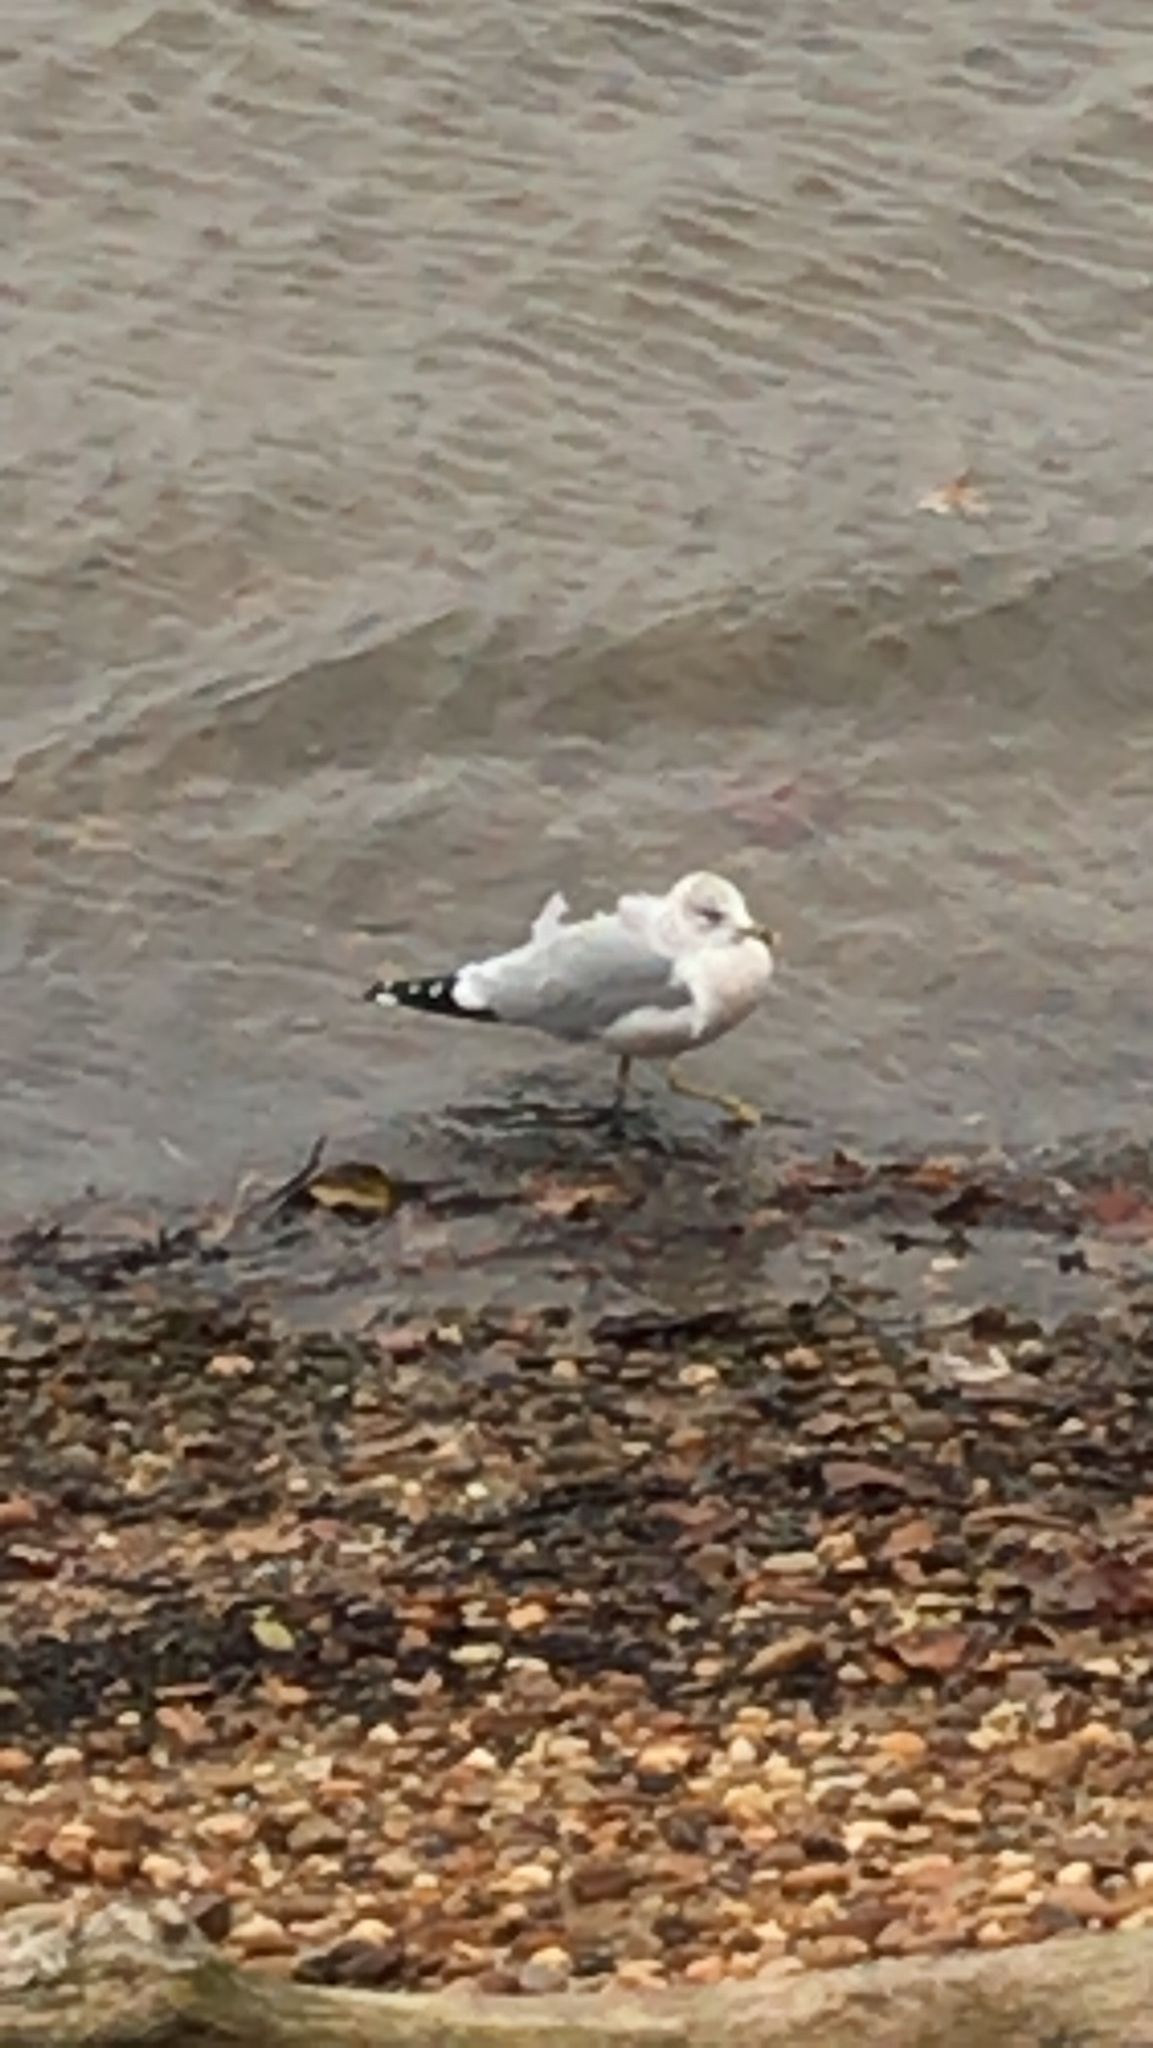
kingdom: Animalia
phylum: Chordata
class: Aves
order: Charadriiformes
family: Laridae
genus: Larus
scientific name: Larus delawarensis
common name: Ring-billed gull
